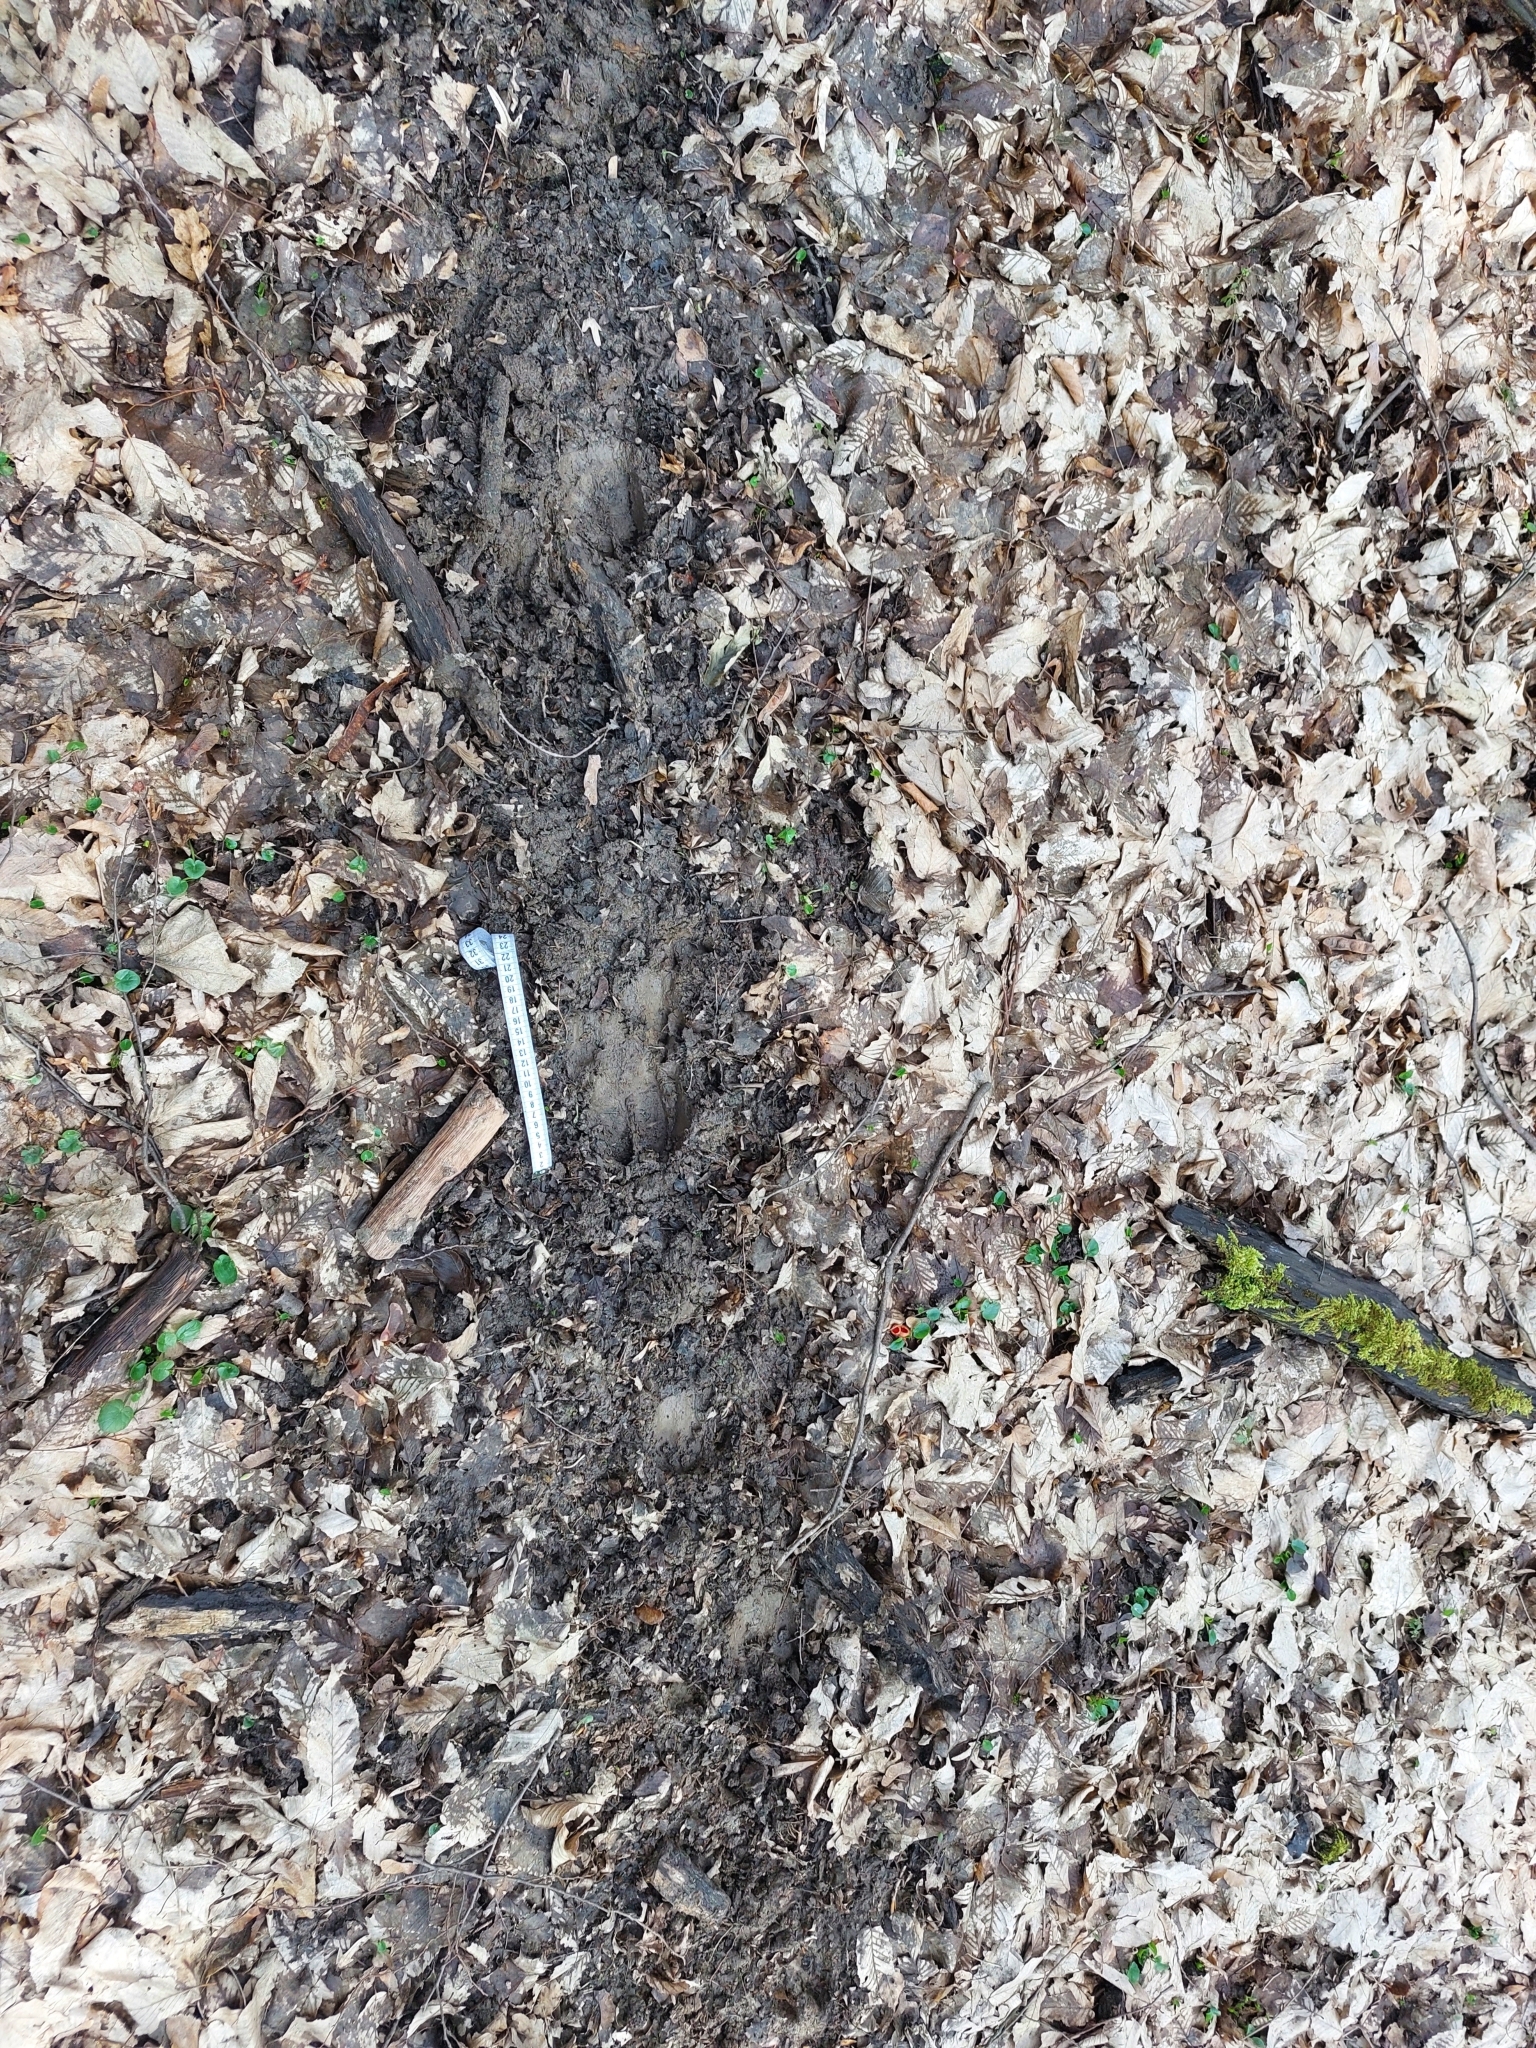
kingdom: Animalia
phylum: Chordata
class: Mammalia
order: Artiodactyla
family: Suidae
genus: Sus
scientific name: Sus scrofa
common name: Wild boar
